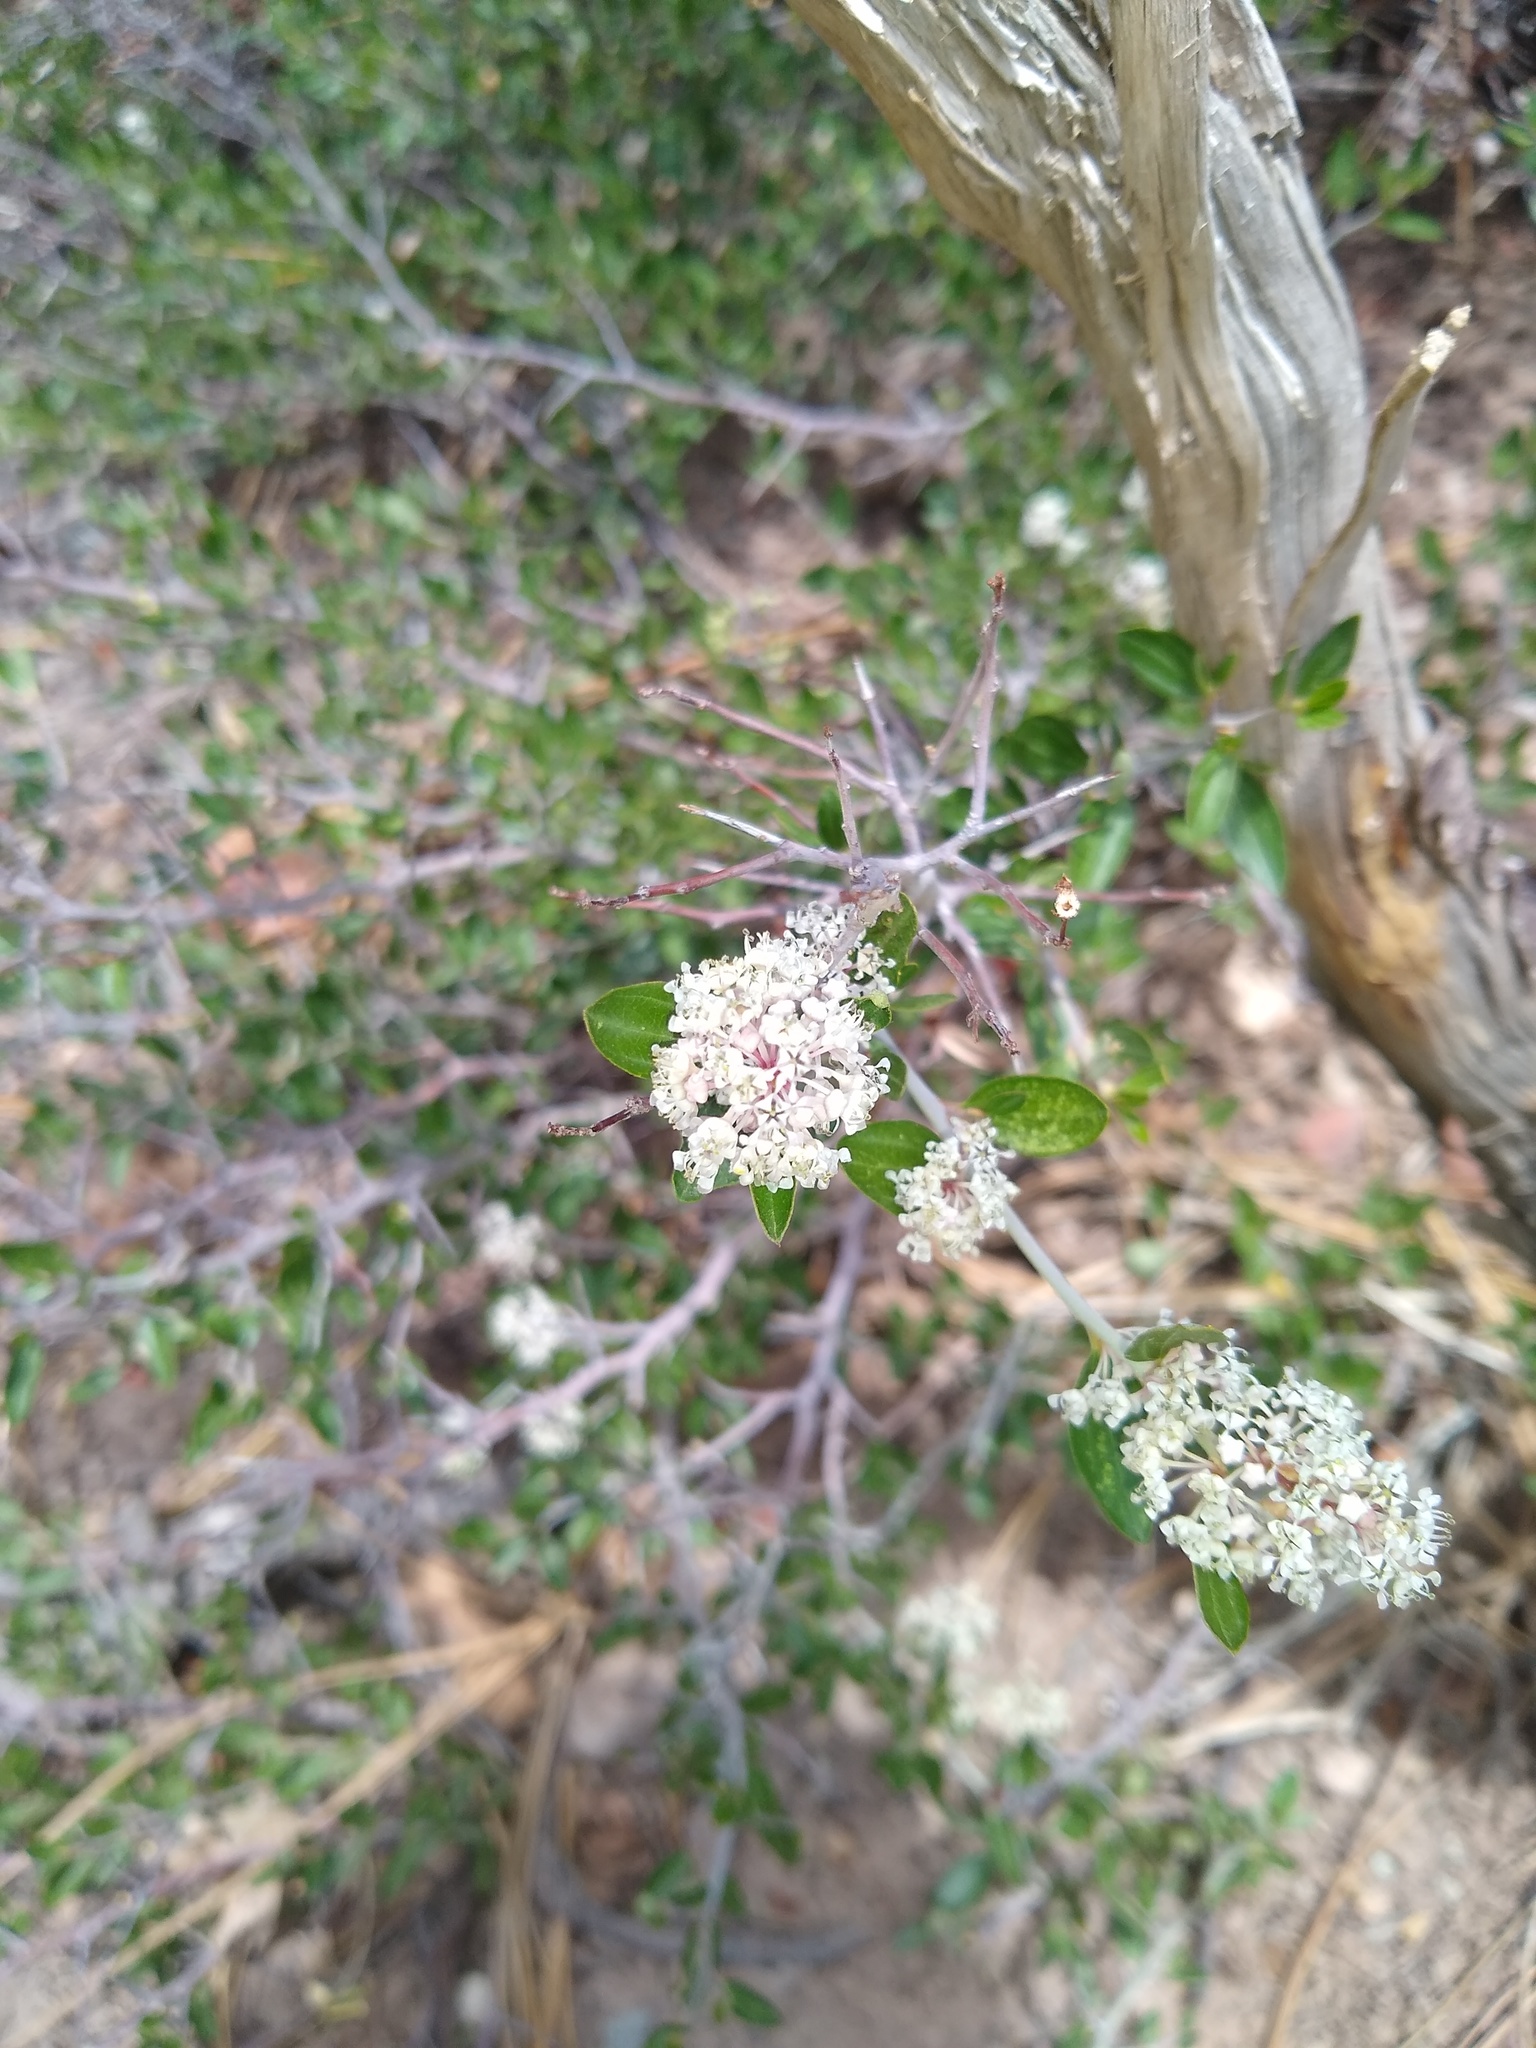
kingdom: Plantae
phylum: Tracheophyta
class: Magnoliopsida
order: Rosales
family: Rhamnaceae
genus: Ceanothus
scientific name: Ceanothus fendleri
